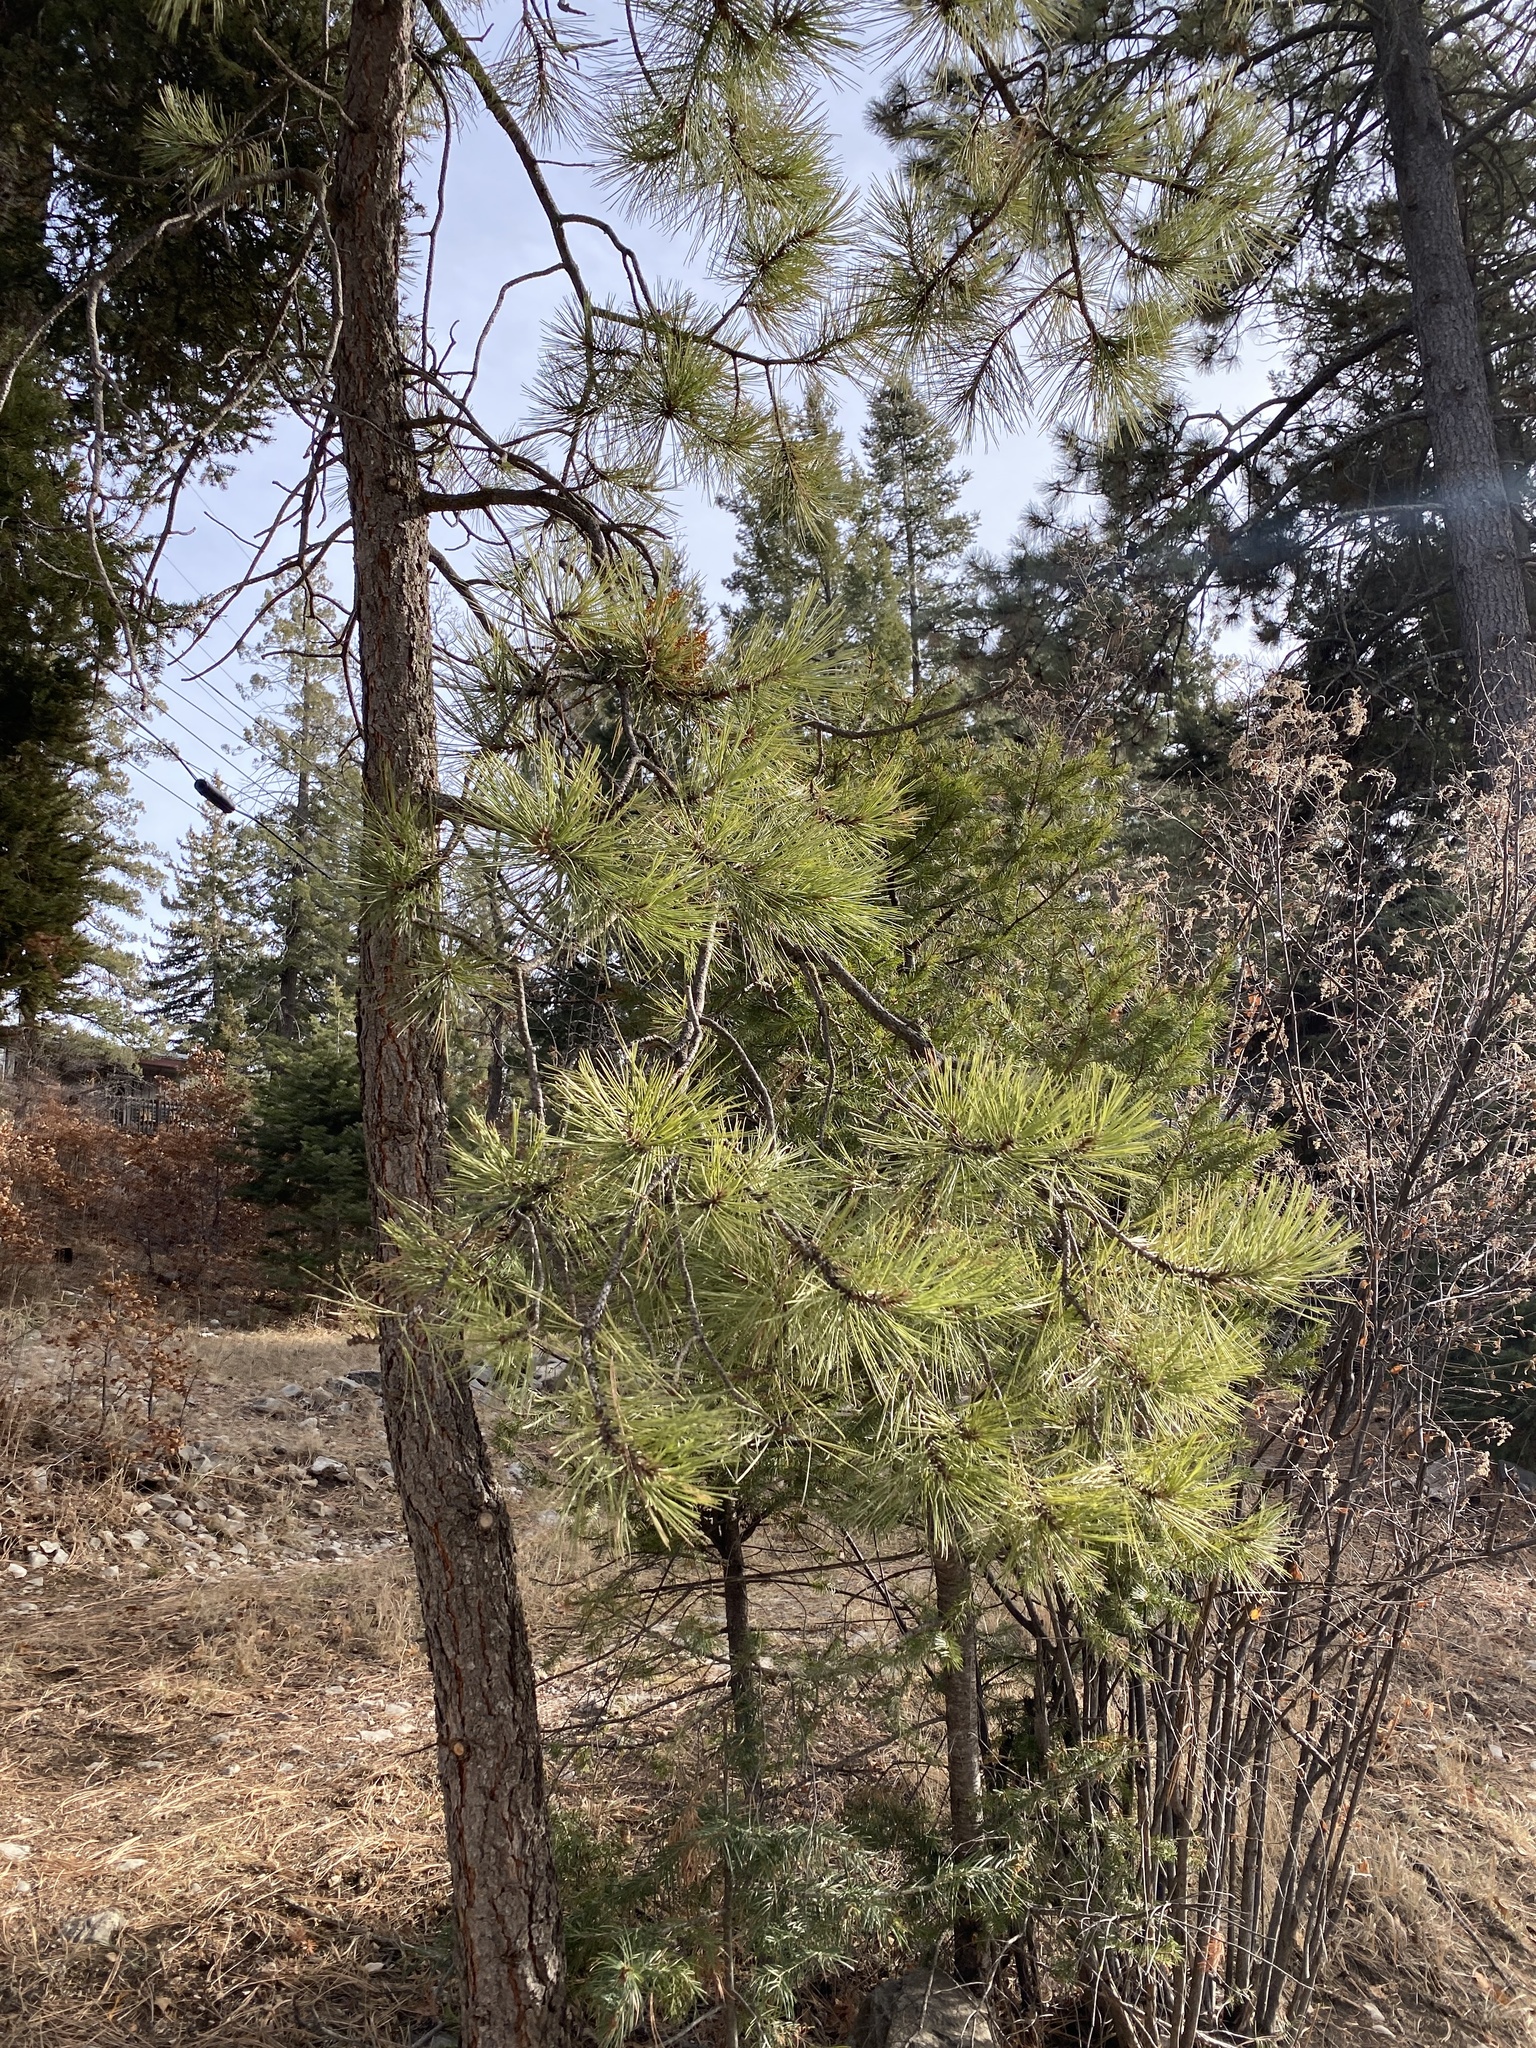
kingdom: Plantae
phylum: Tracheophyta
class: Pinopsida
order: Pinales
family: Pinaceae
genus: Pinus
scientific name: Pinus ponderosa
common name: Western yellow-pine
